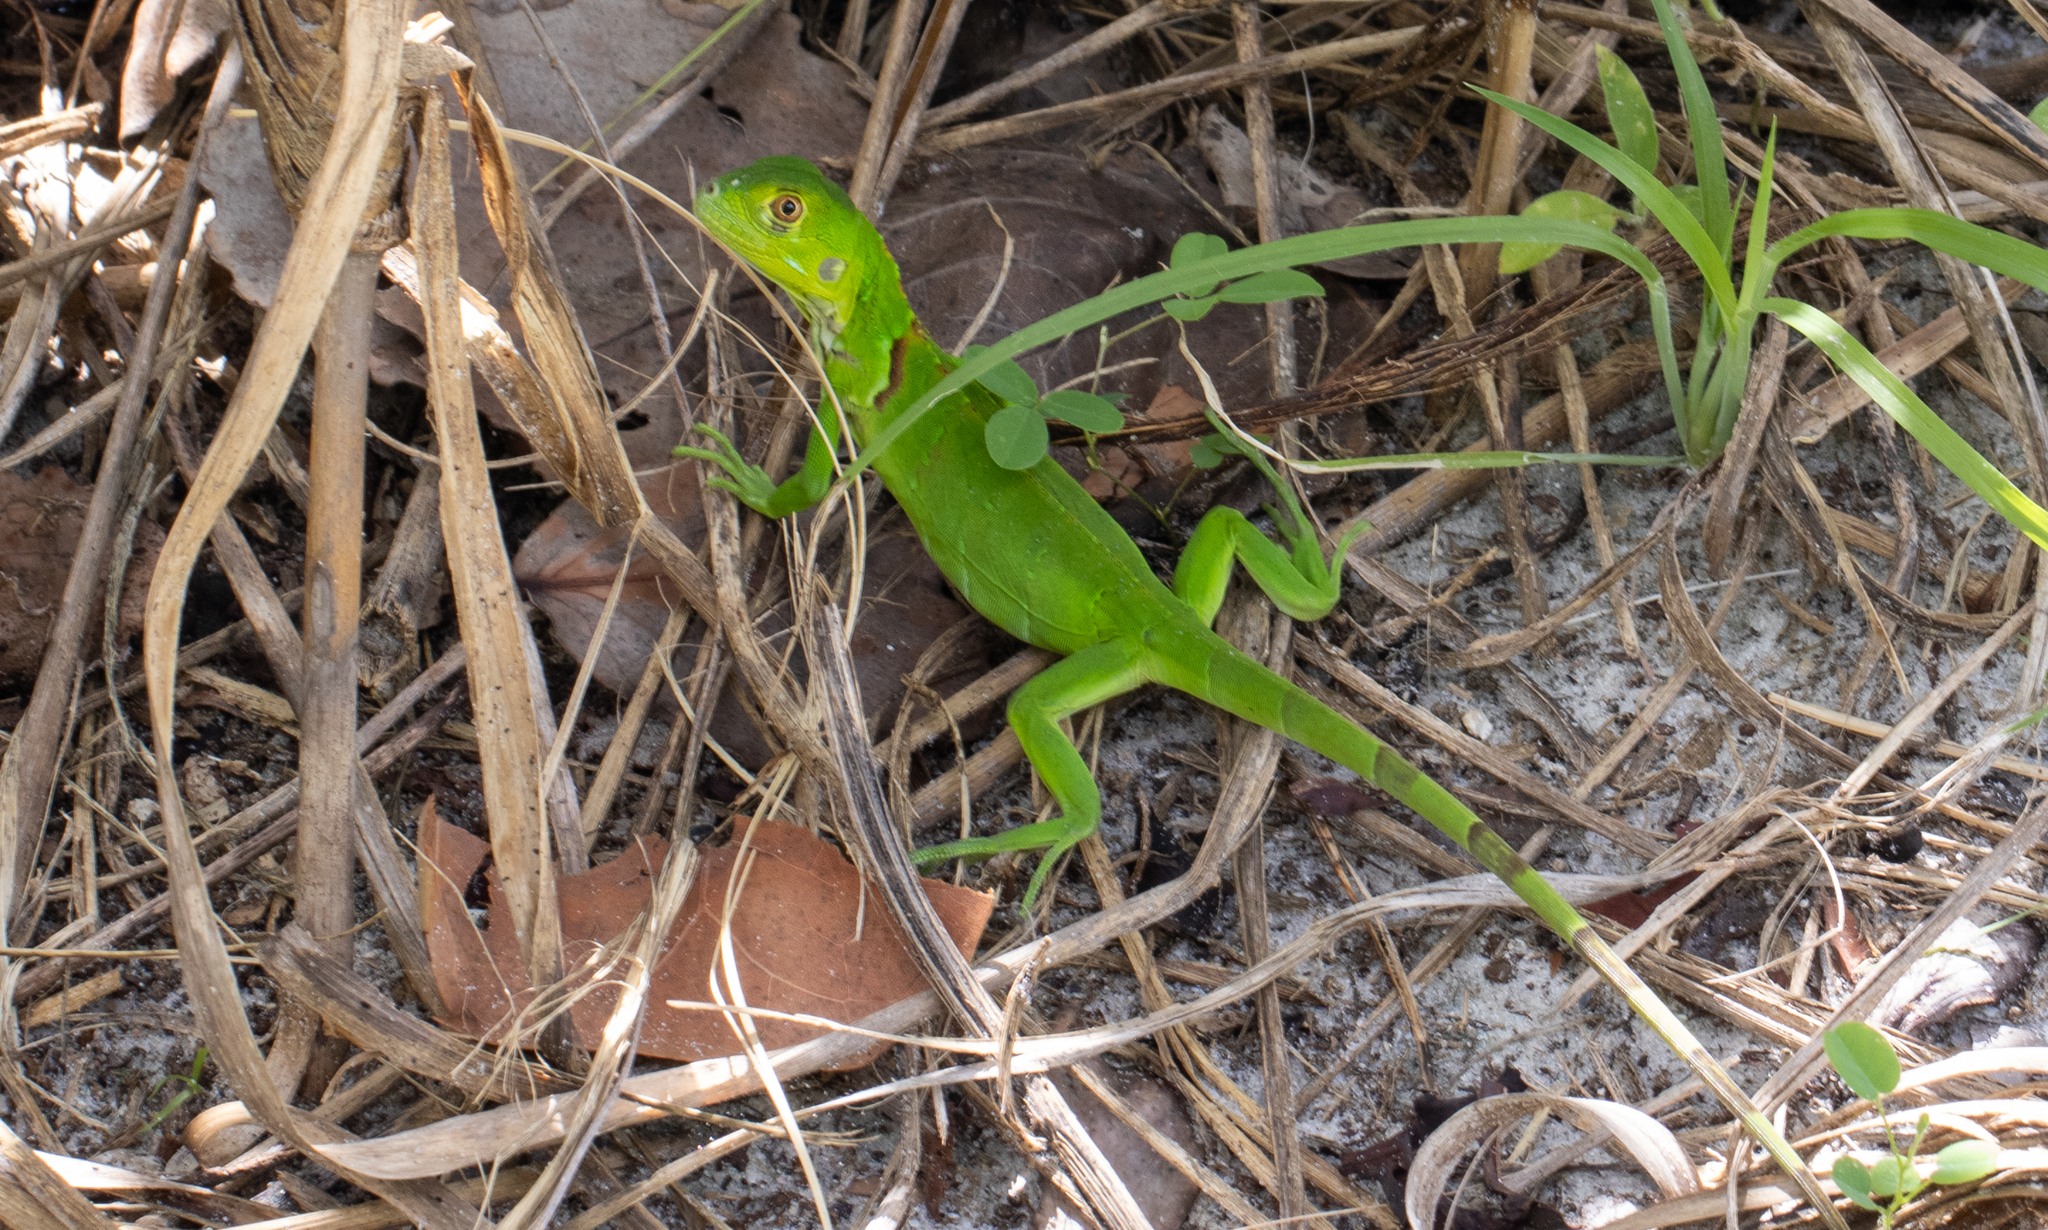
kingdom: Animalia
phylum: Chordata
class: Squamata
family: Iguanidae
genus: Iguana
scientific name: Iguana iguana
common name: Green iguana
